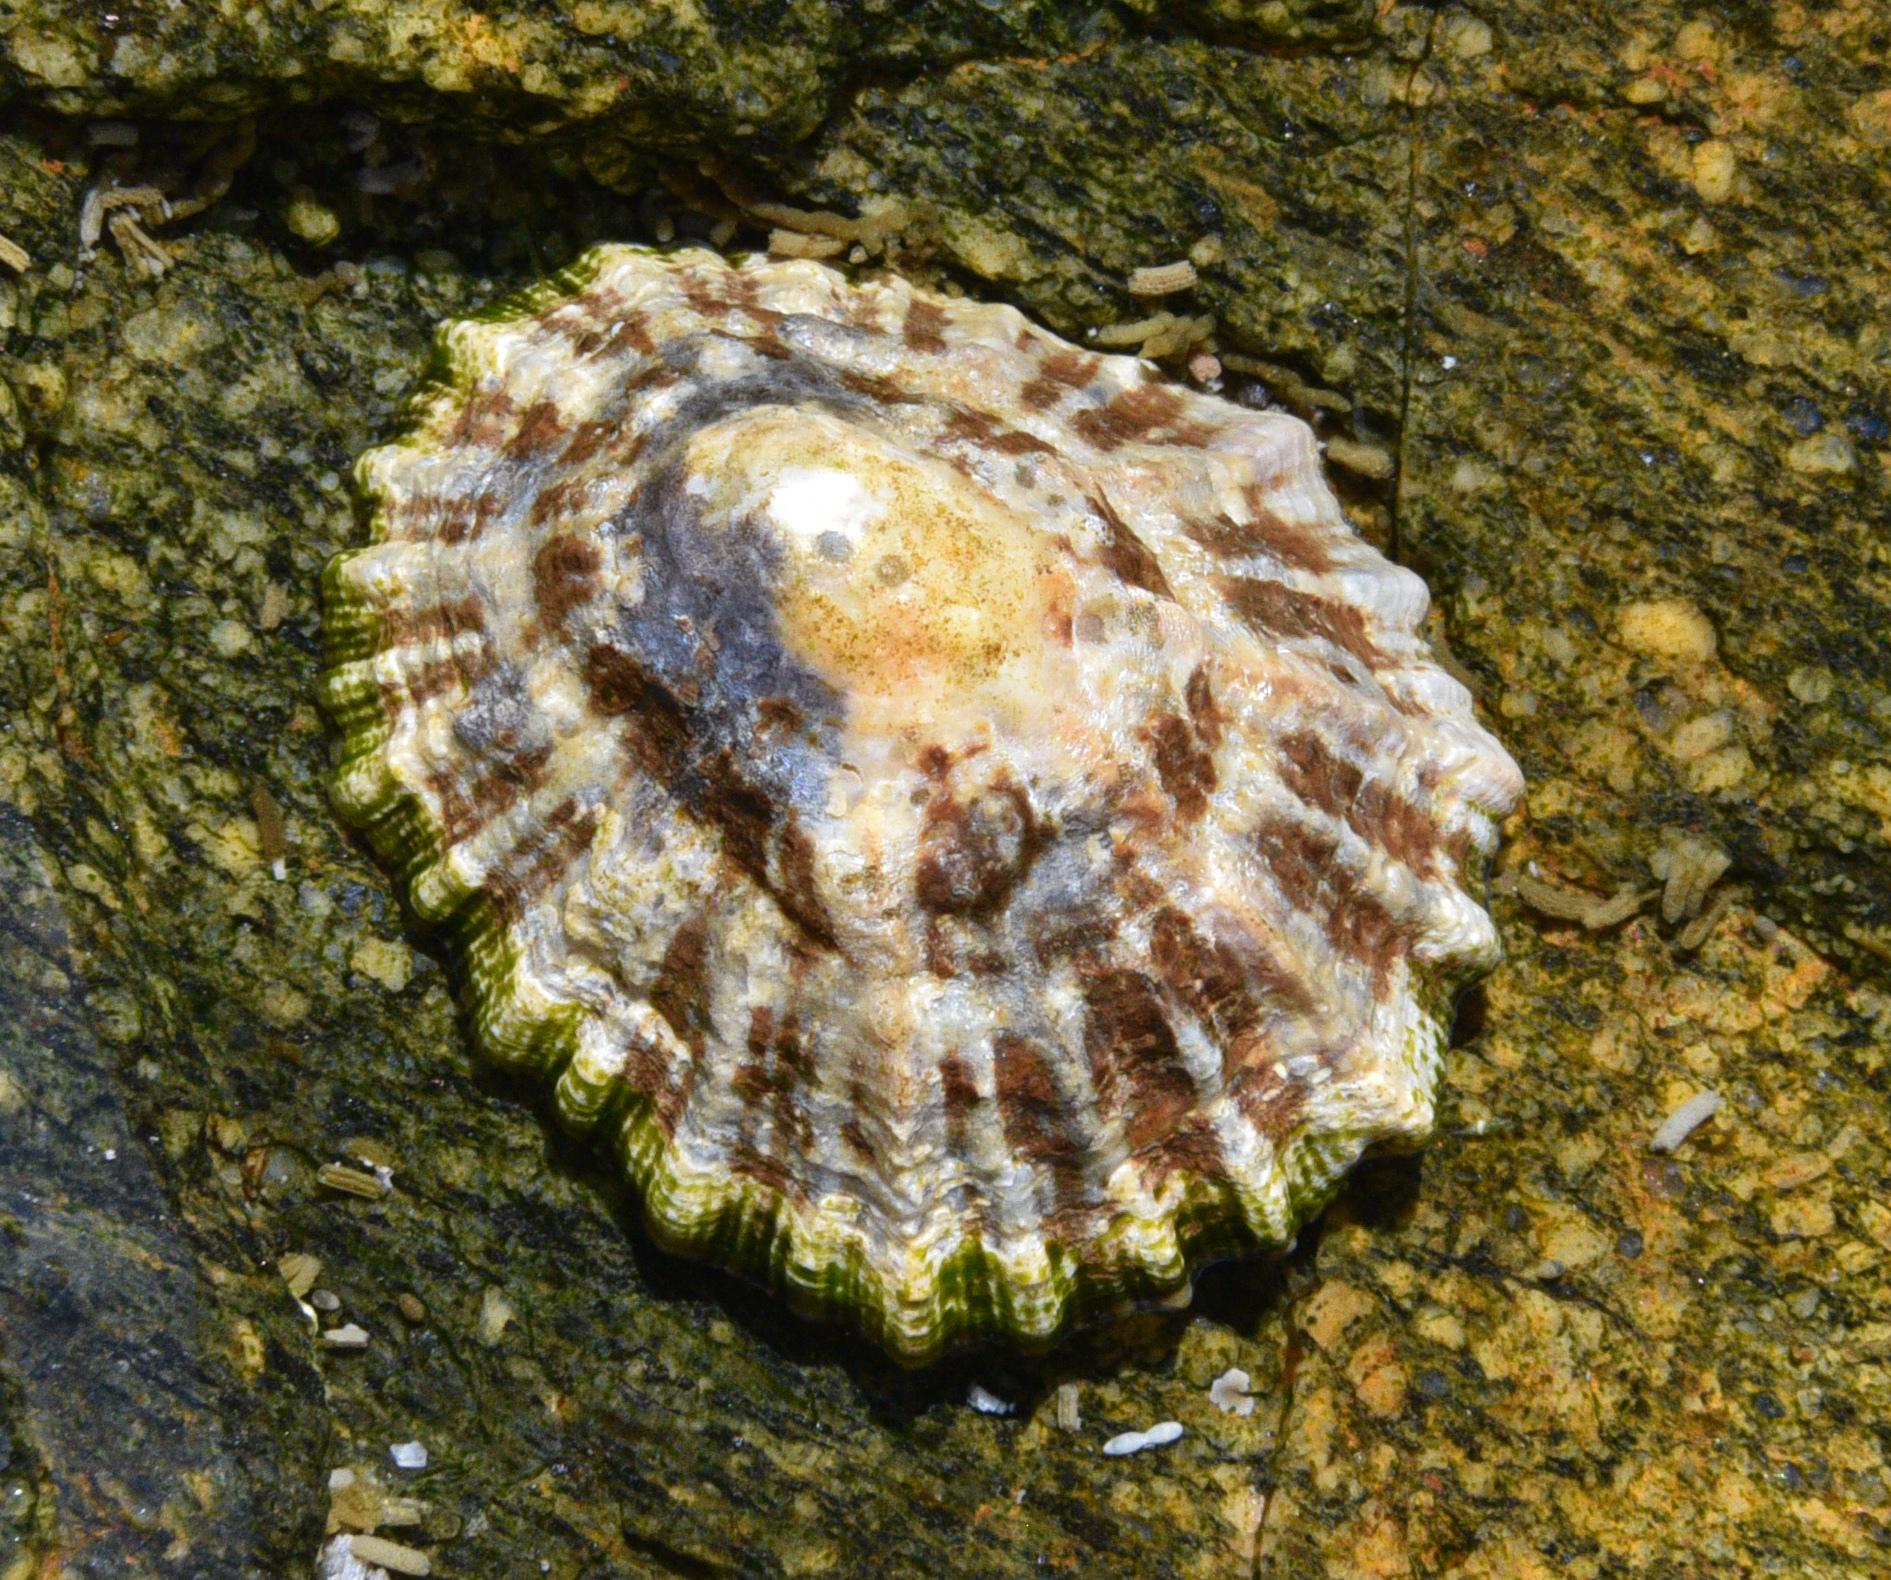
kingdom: Animalia
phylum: Mollusca
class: Gastropoda
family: Patellidae
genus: Patella
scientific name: Patella vulgata
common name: Common limpet
